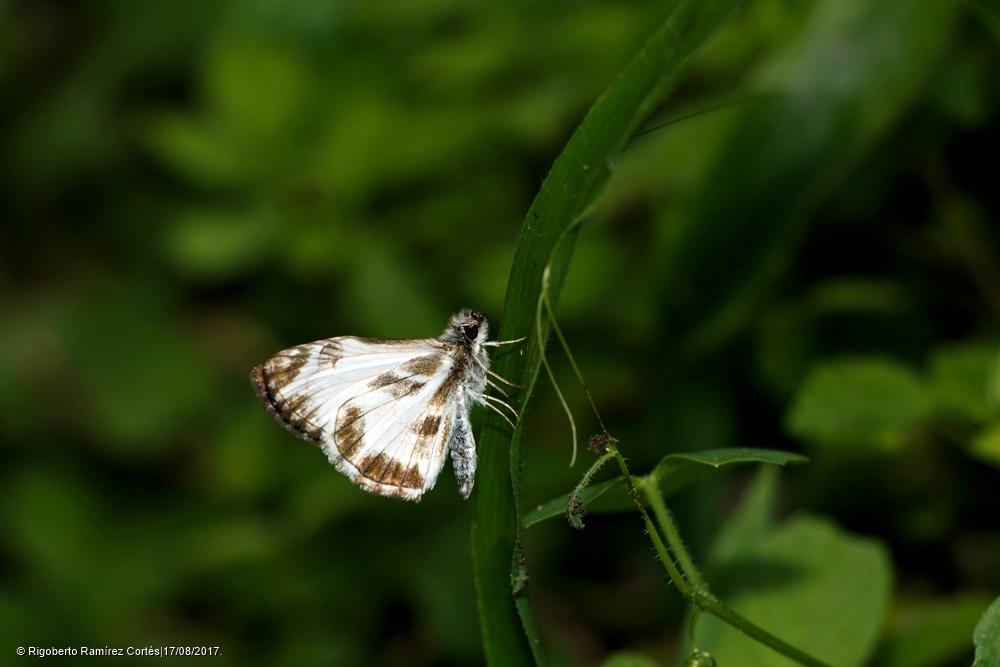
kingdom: Animalia
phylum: Arthropoda
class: Insecta
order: Lepidoptera
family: Hesperiidae
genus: Heliopetes
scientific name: Heliopetes macaira
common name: Turk's-cap white-skipper
